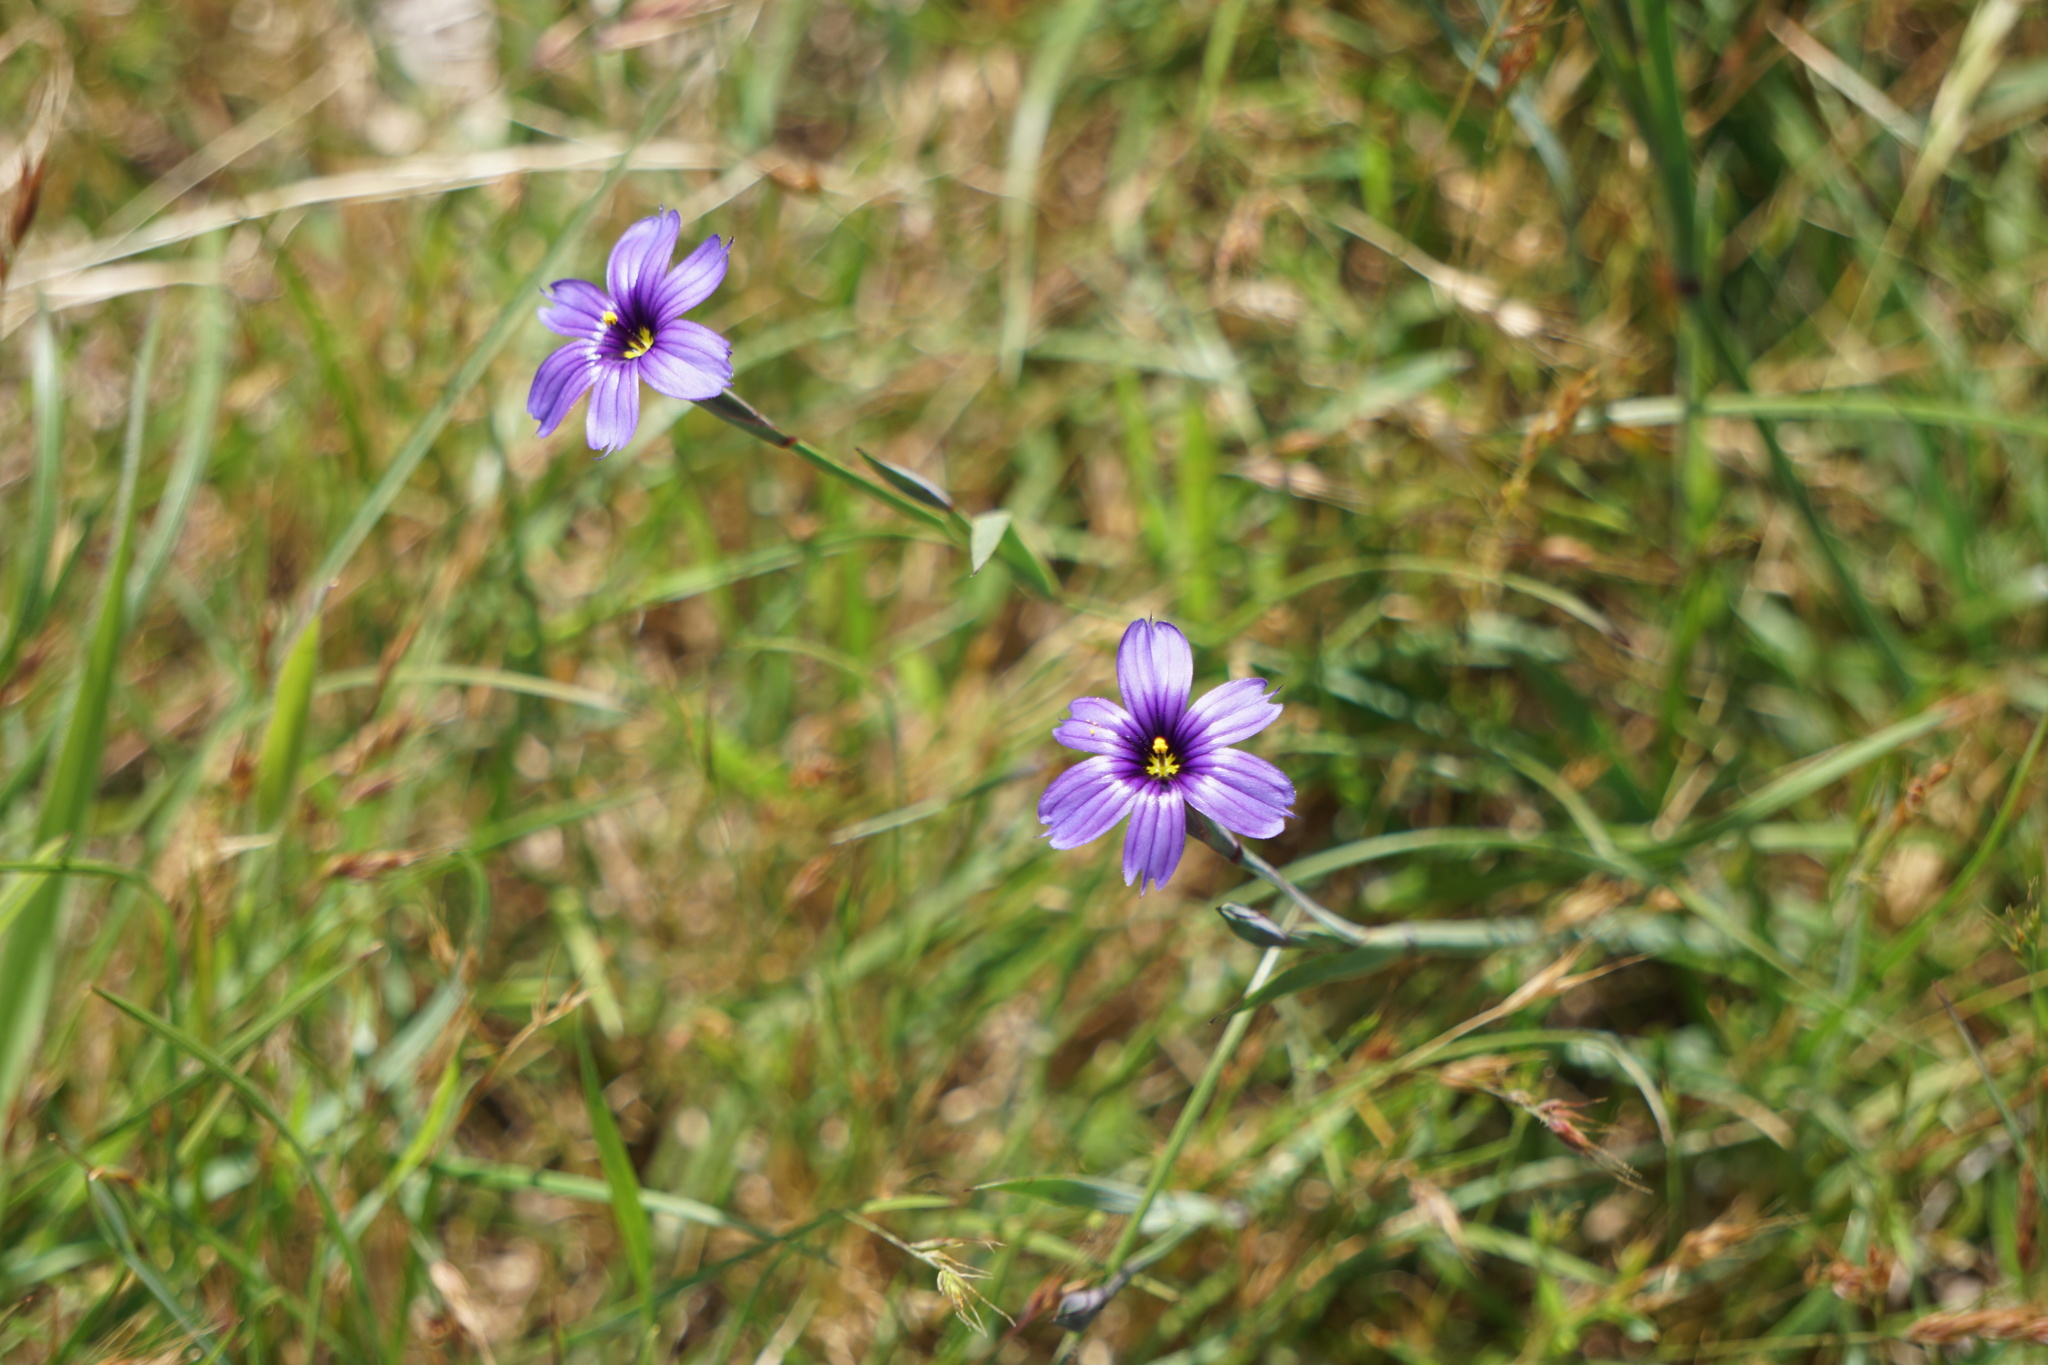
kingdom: Plantae
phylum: Tracheophyta
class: Liliopsida
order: Asparagales
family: Iridaceae
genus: Sisyrinchium
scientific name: Sisyrinchium bellum
